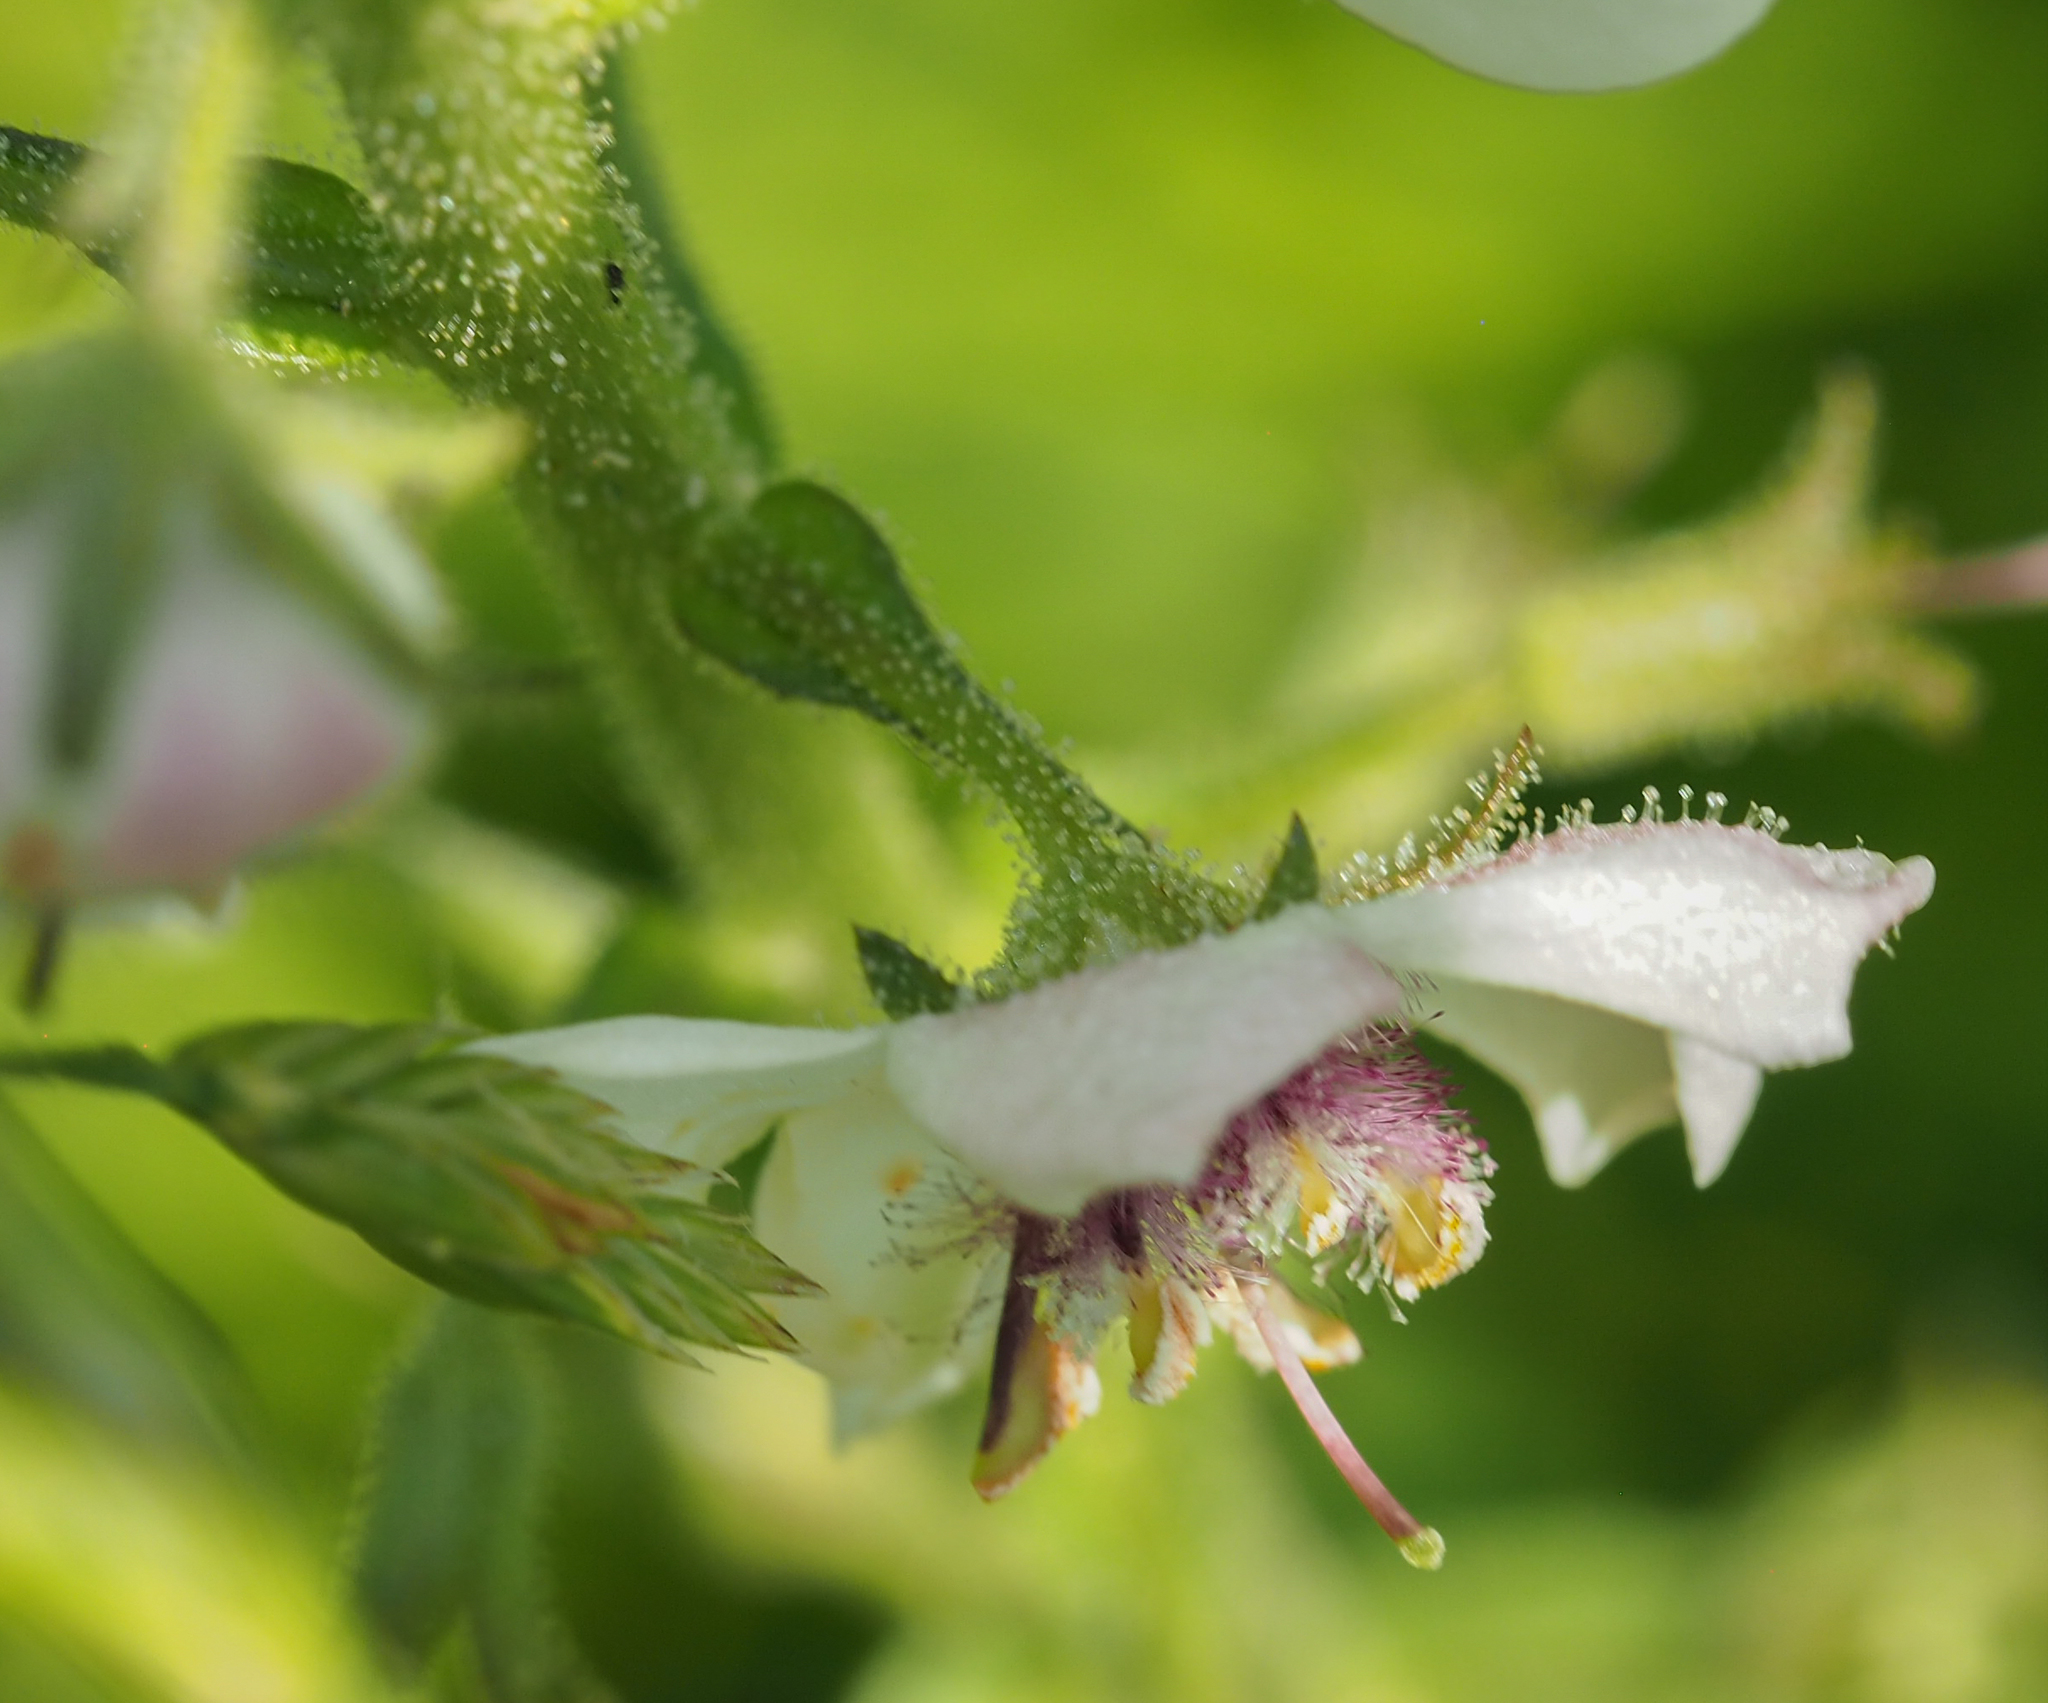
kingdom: Plantae
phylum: Tracheophyta
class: Magnoliopsida
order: Lamiales
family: Scrophulariaceae
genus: Verbascum
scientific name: Verbascum blattaria
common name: Moth mullein
